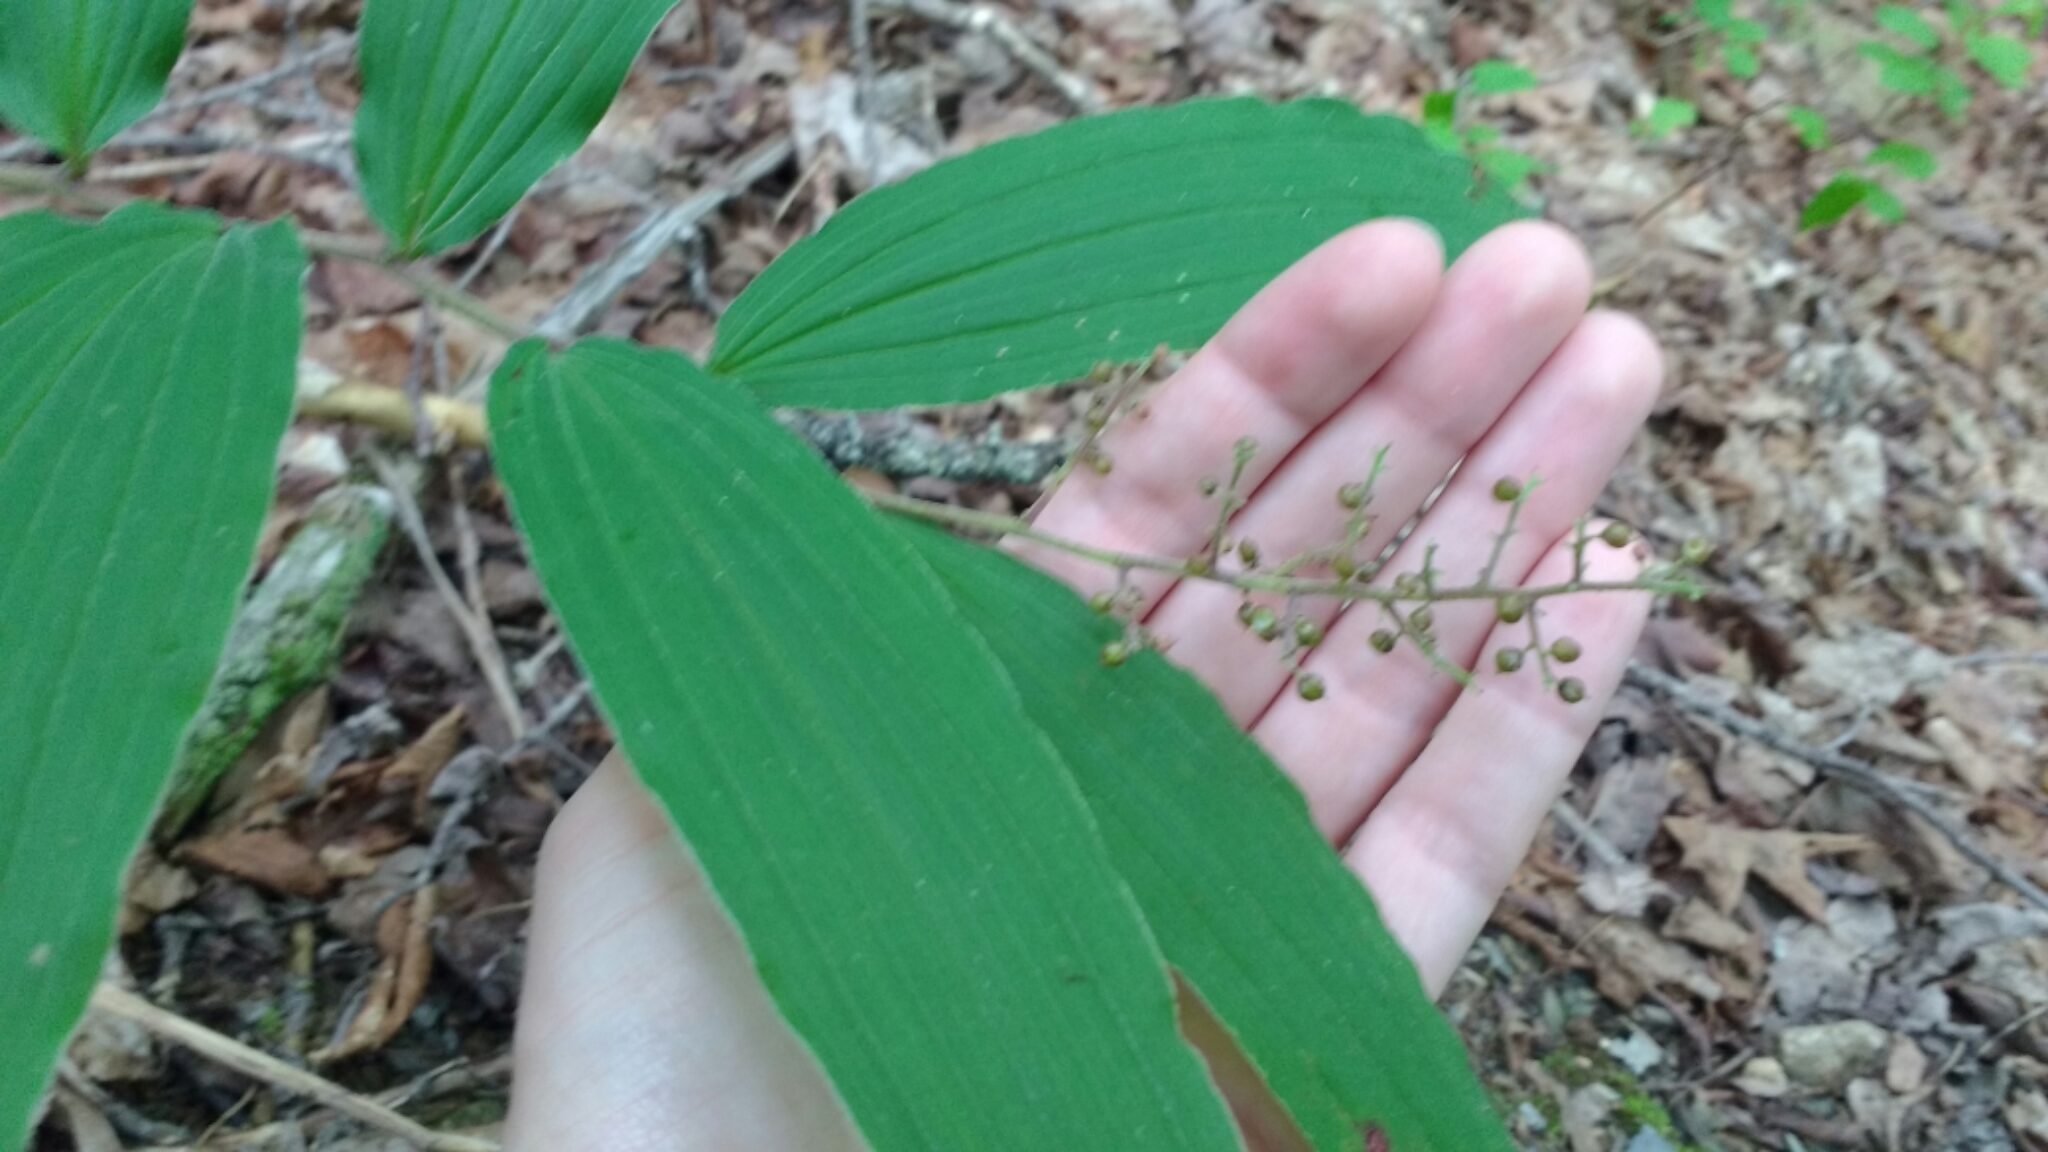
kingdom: Plantae
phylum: Tracheophyta
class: Liliopsida
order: Asparagales
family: Asparagaceae
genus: Maianthemum
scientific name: Maianthemum racemosum
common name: False spikenard
